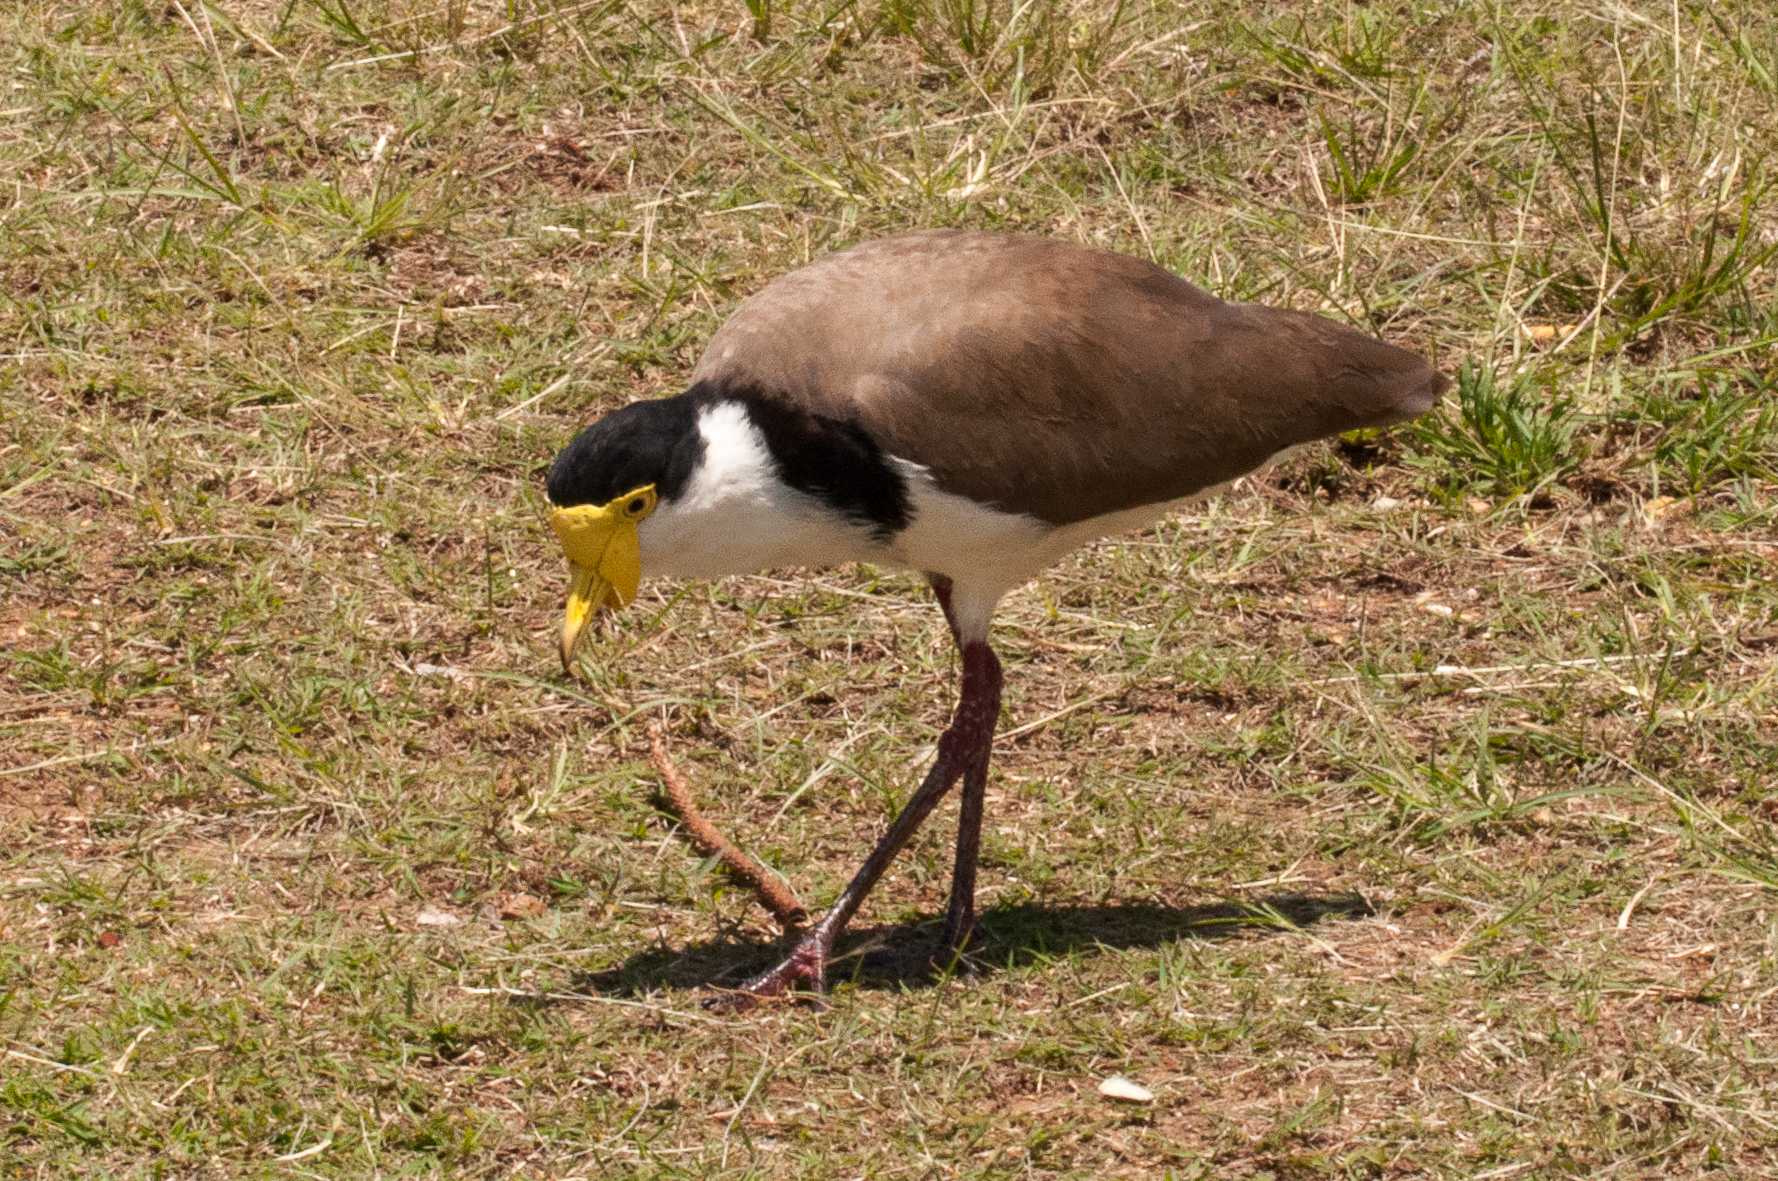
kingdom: Animalia
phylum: Chordata
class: Aves
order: Charadriiformes
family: Charadriidae
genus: Vanellus
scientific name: Vanellus miles
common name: Masked lapwing
